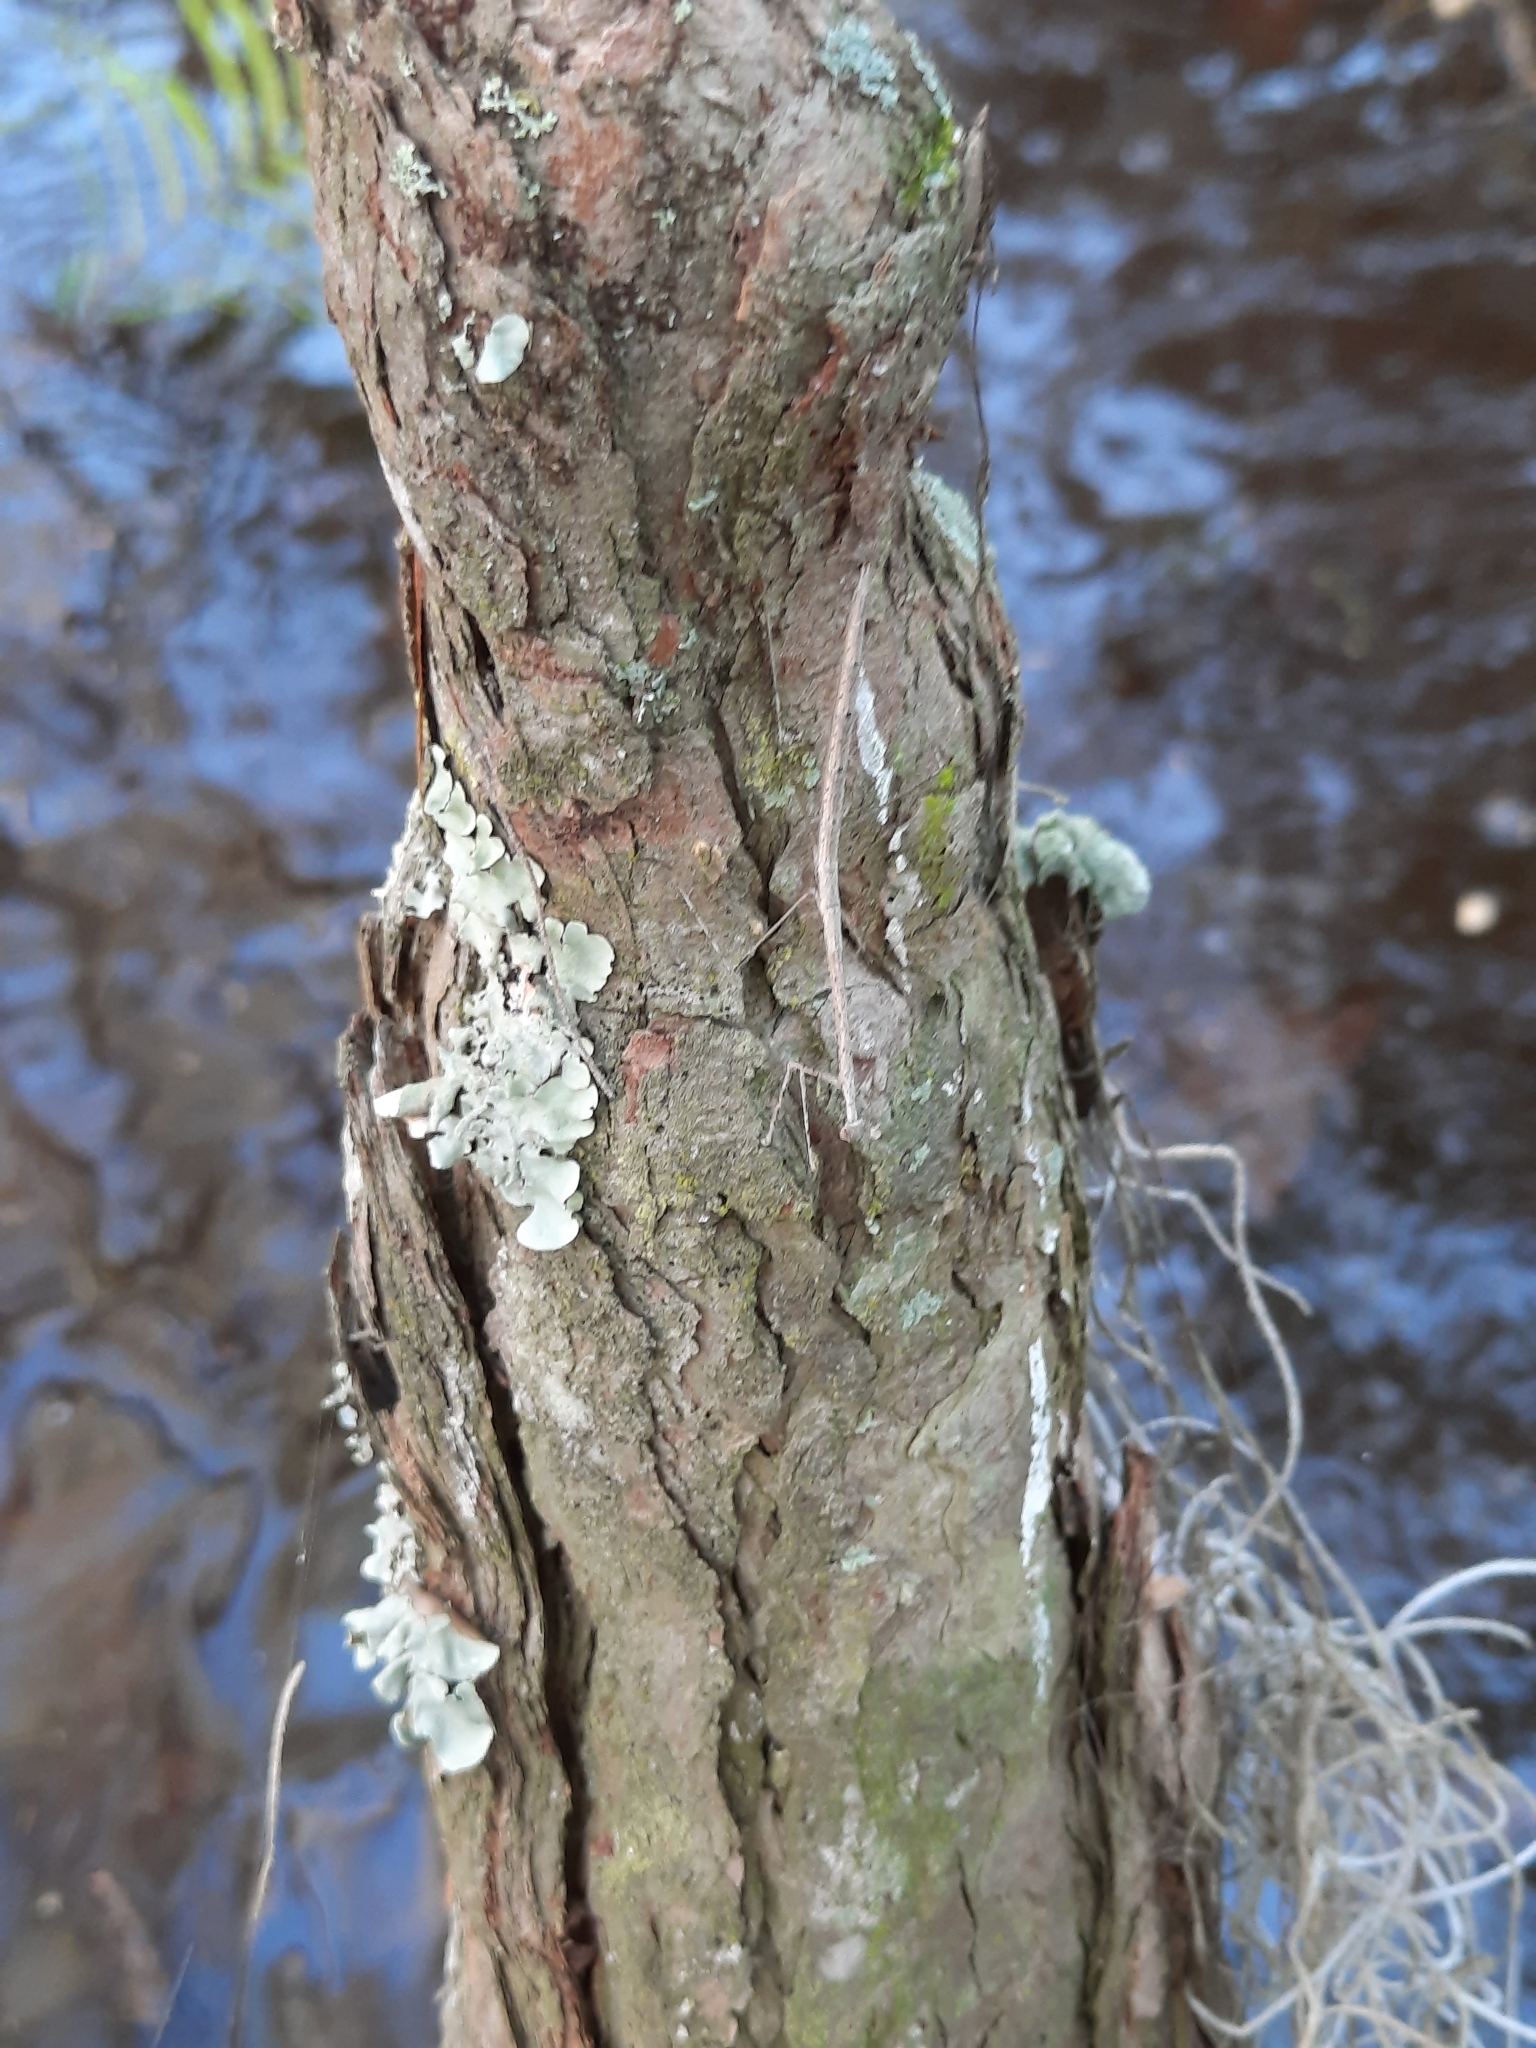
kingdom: Animalia
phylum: Arthropoda
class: Insecta
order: Mantodea
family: Thespidae
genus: Thesprotia
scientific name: Thesprotia graminis
